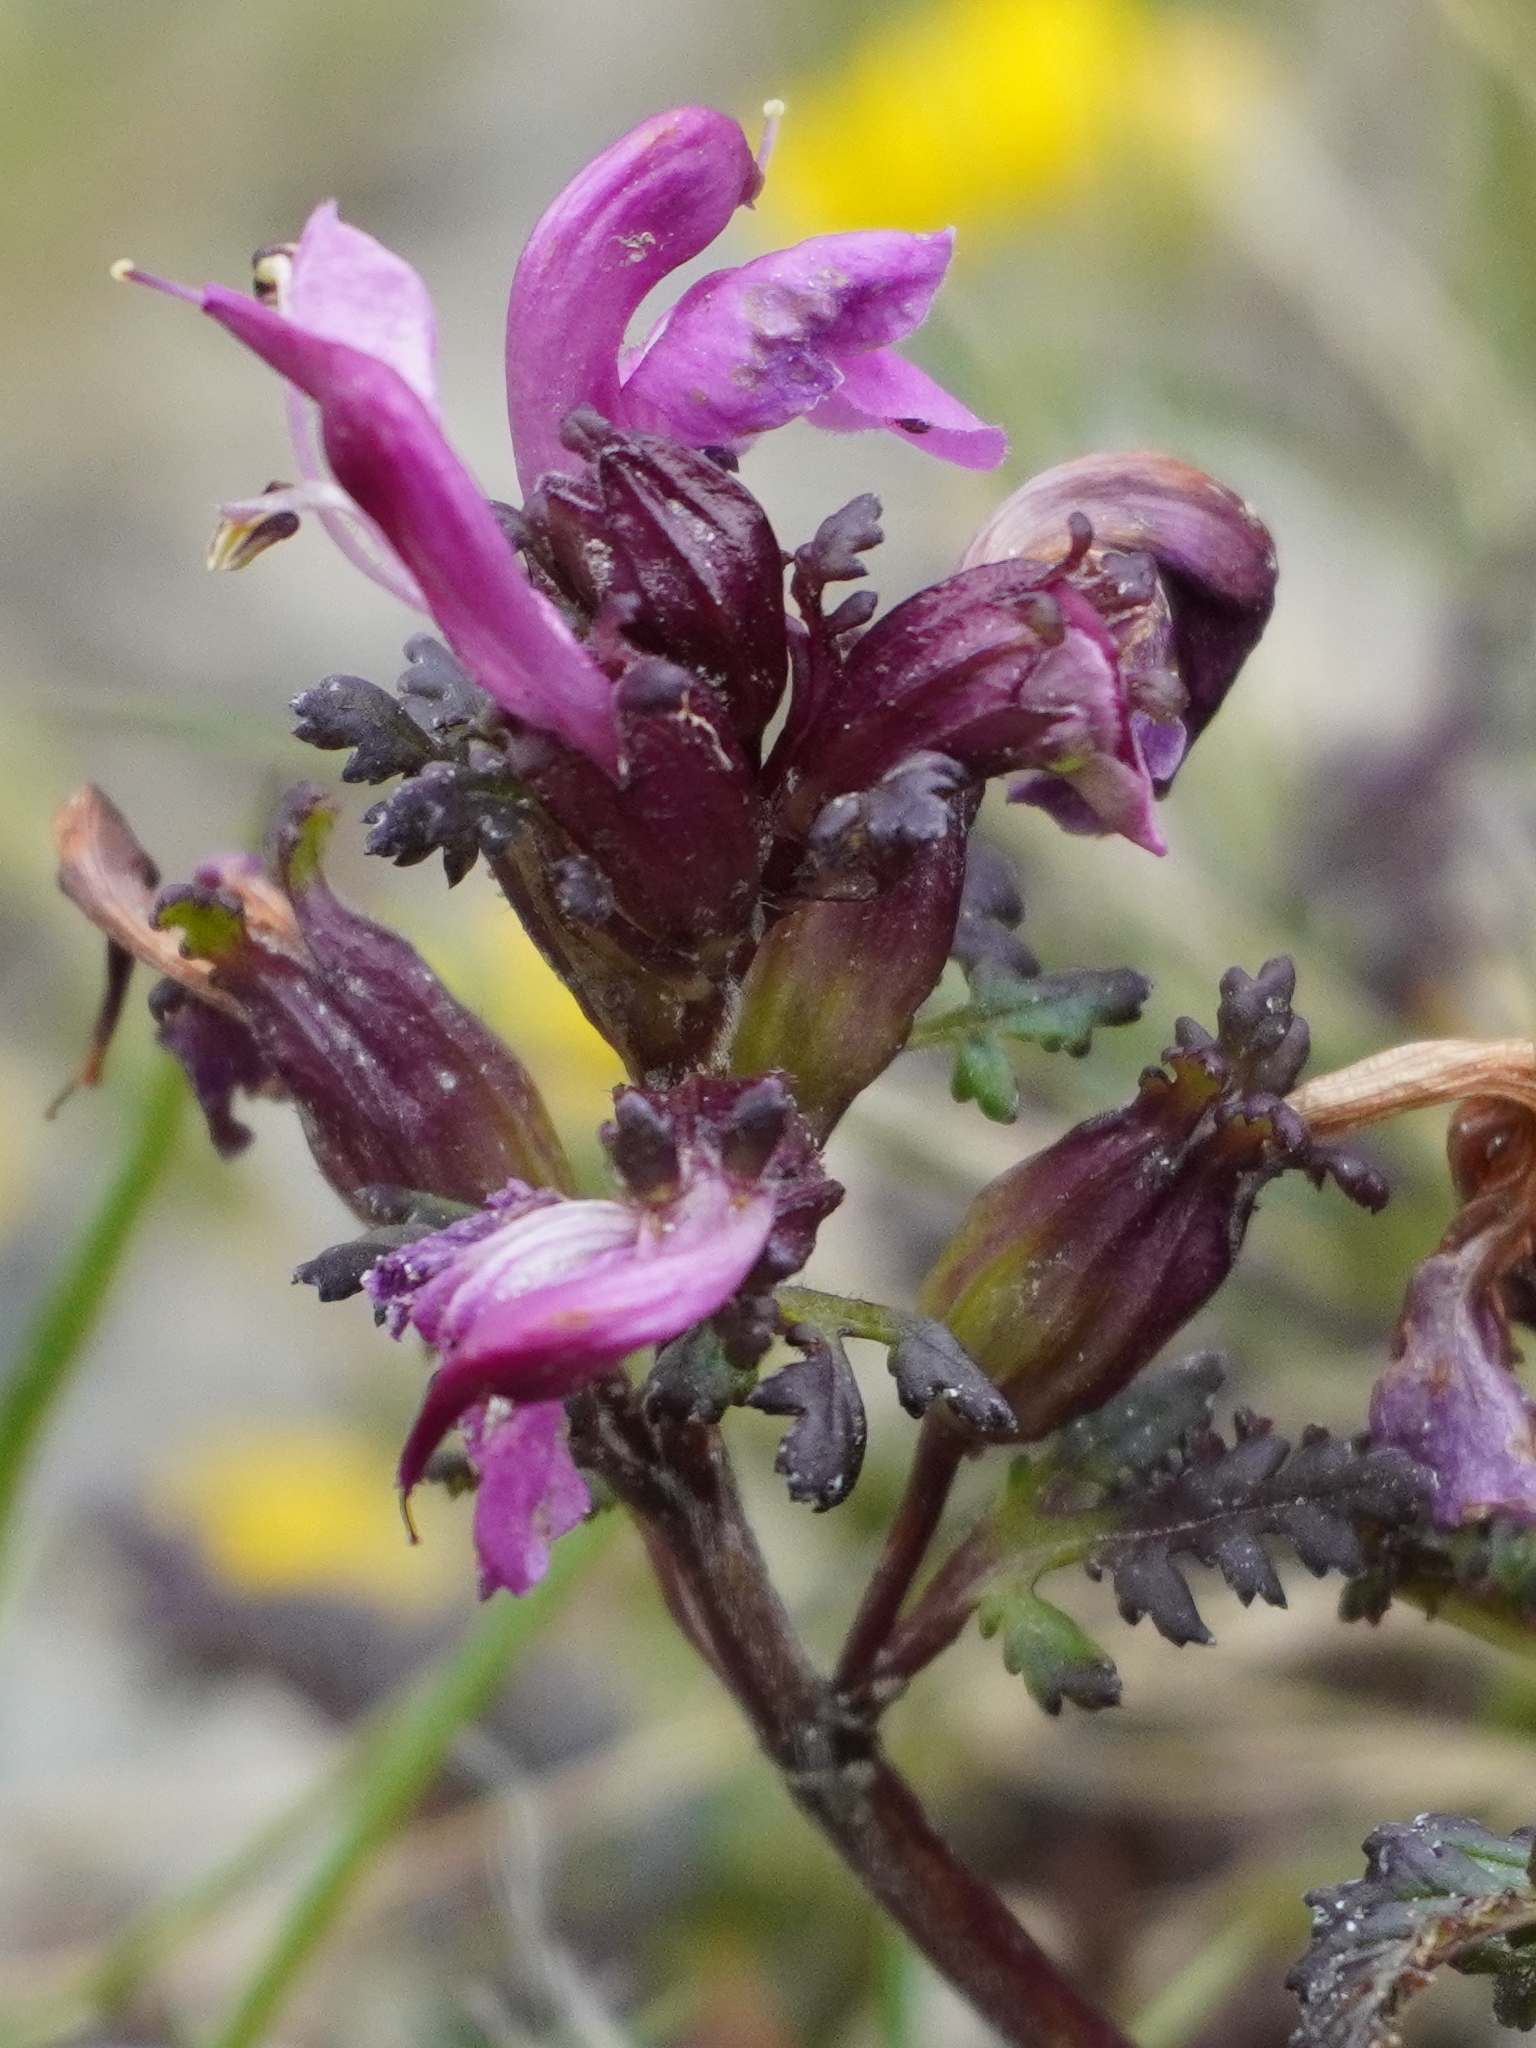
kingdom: Plantae
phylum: Tracheophyta
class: Magnoliopsida
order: Lamiales
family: Orobanchaceae
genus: Pedicularis
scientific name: Pedicularis rostratocapitata
